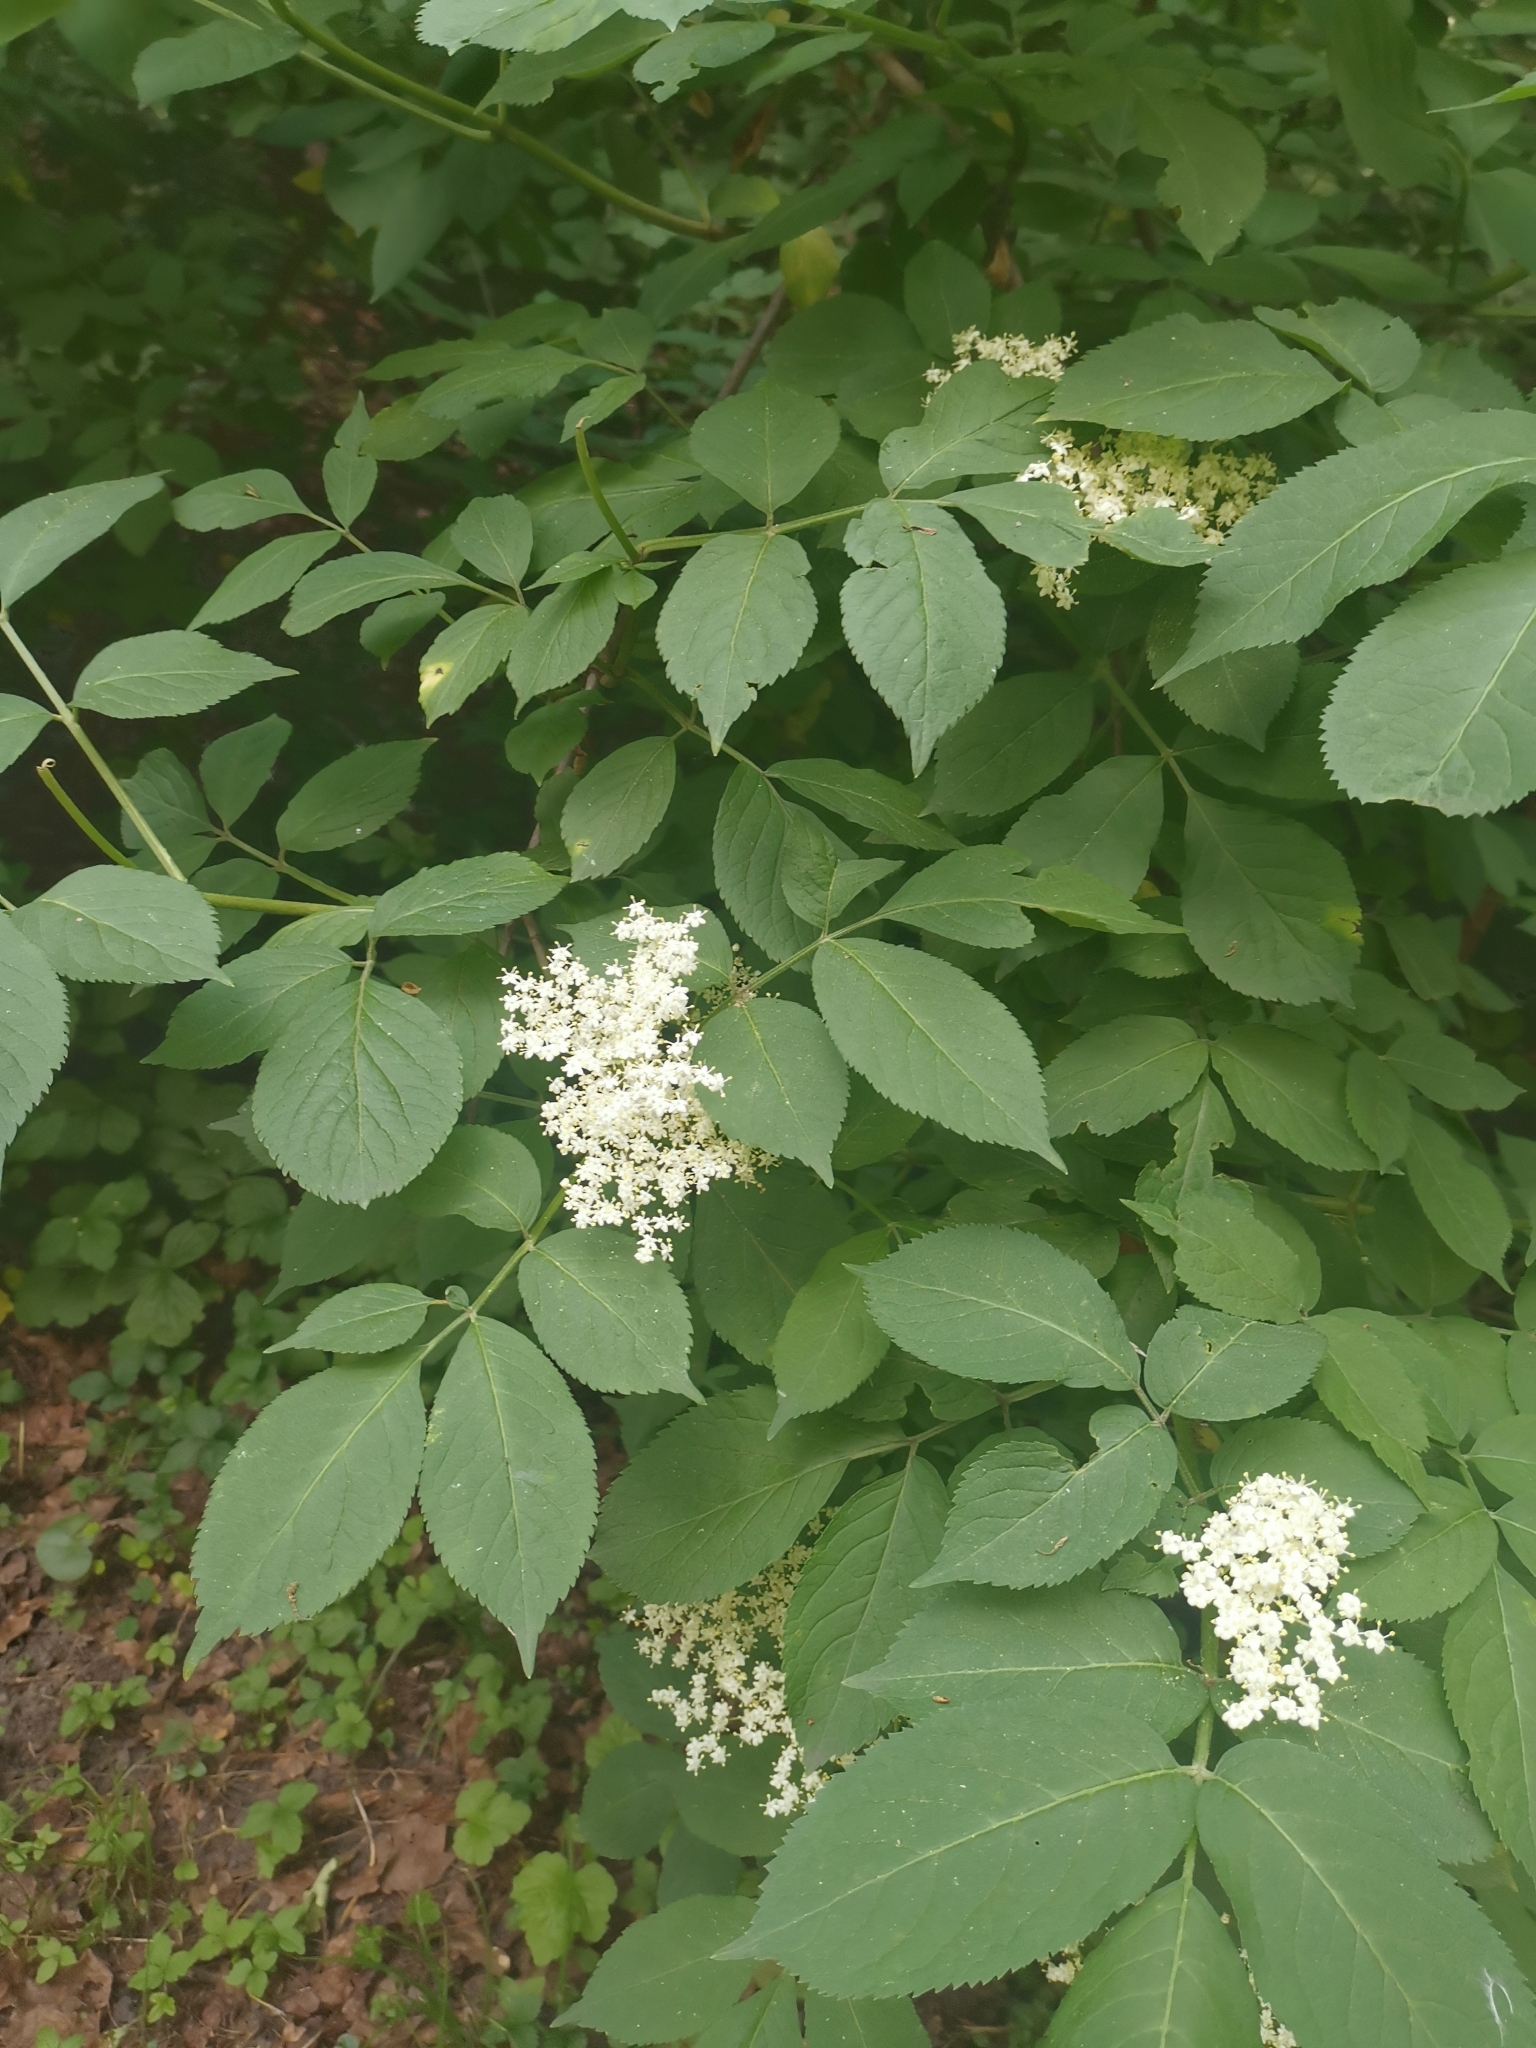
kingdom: Plantae
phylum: Tracheophyta
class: Magnoliopsida
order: Dipsacales
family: Viburnaceae
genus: Sambucus
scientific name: Sambucus nigra
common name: Elder
